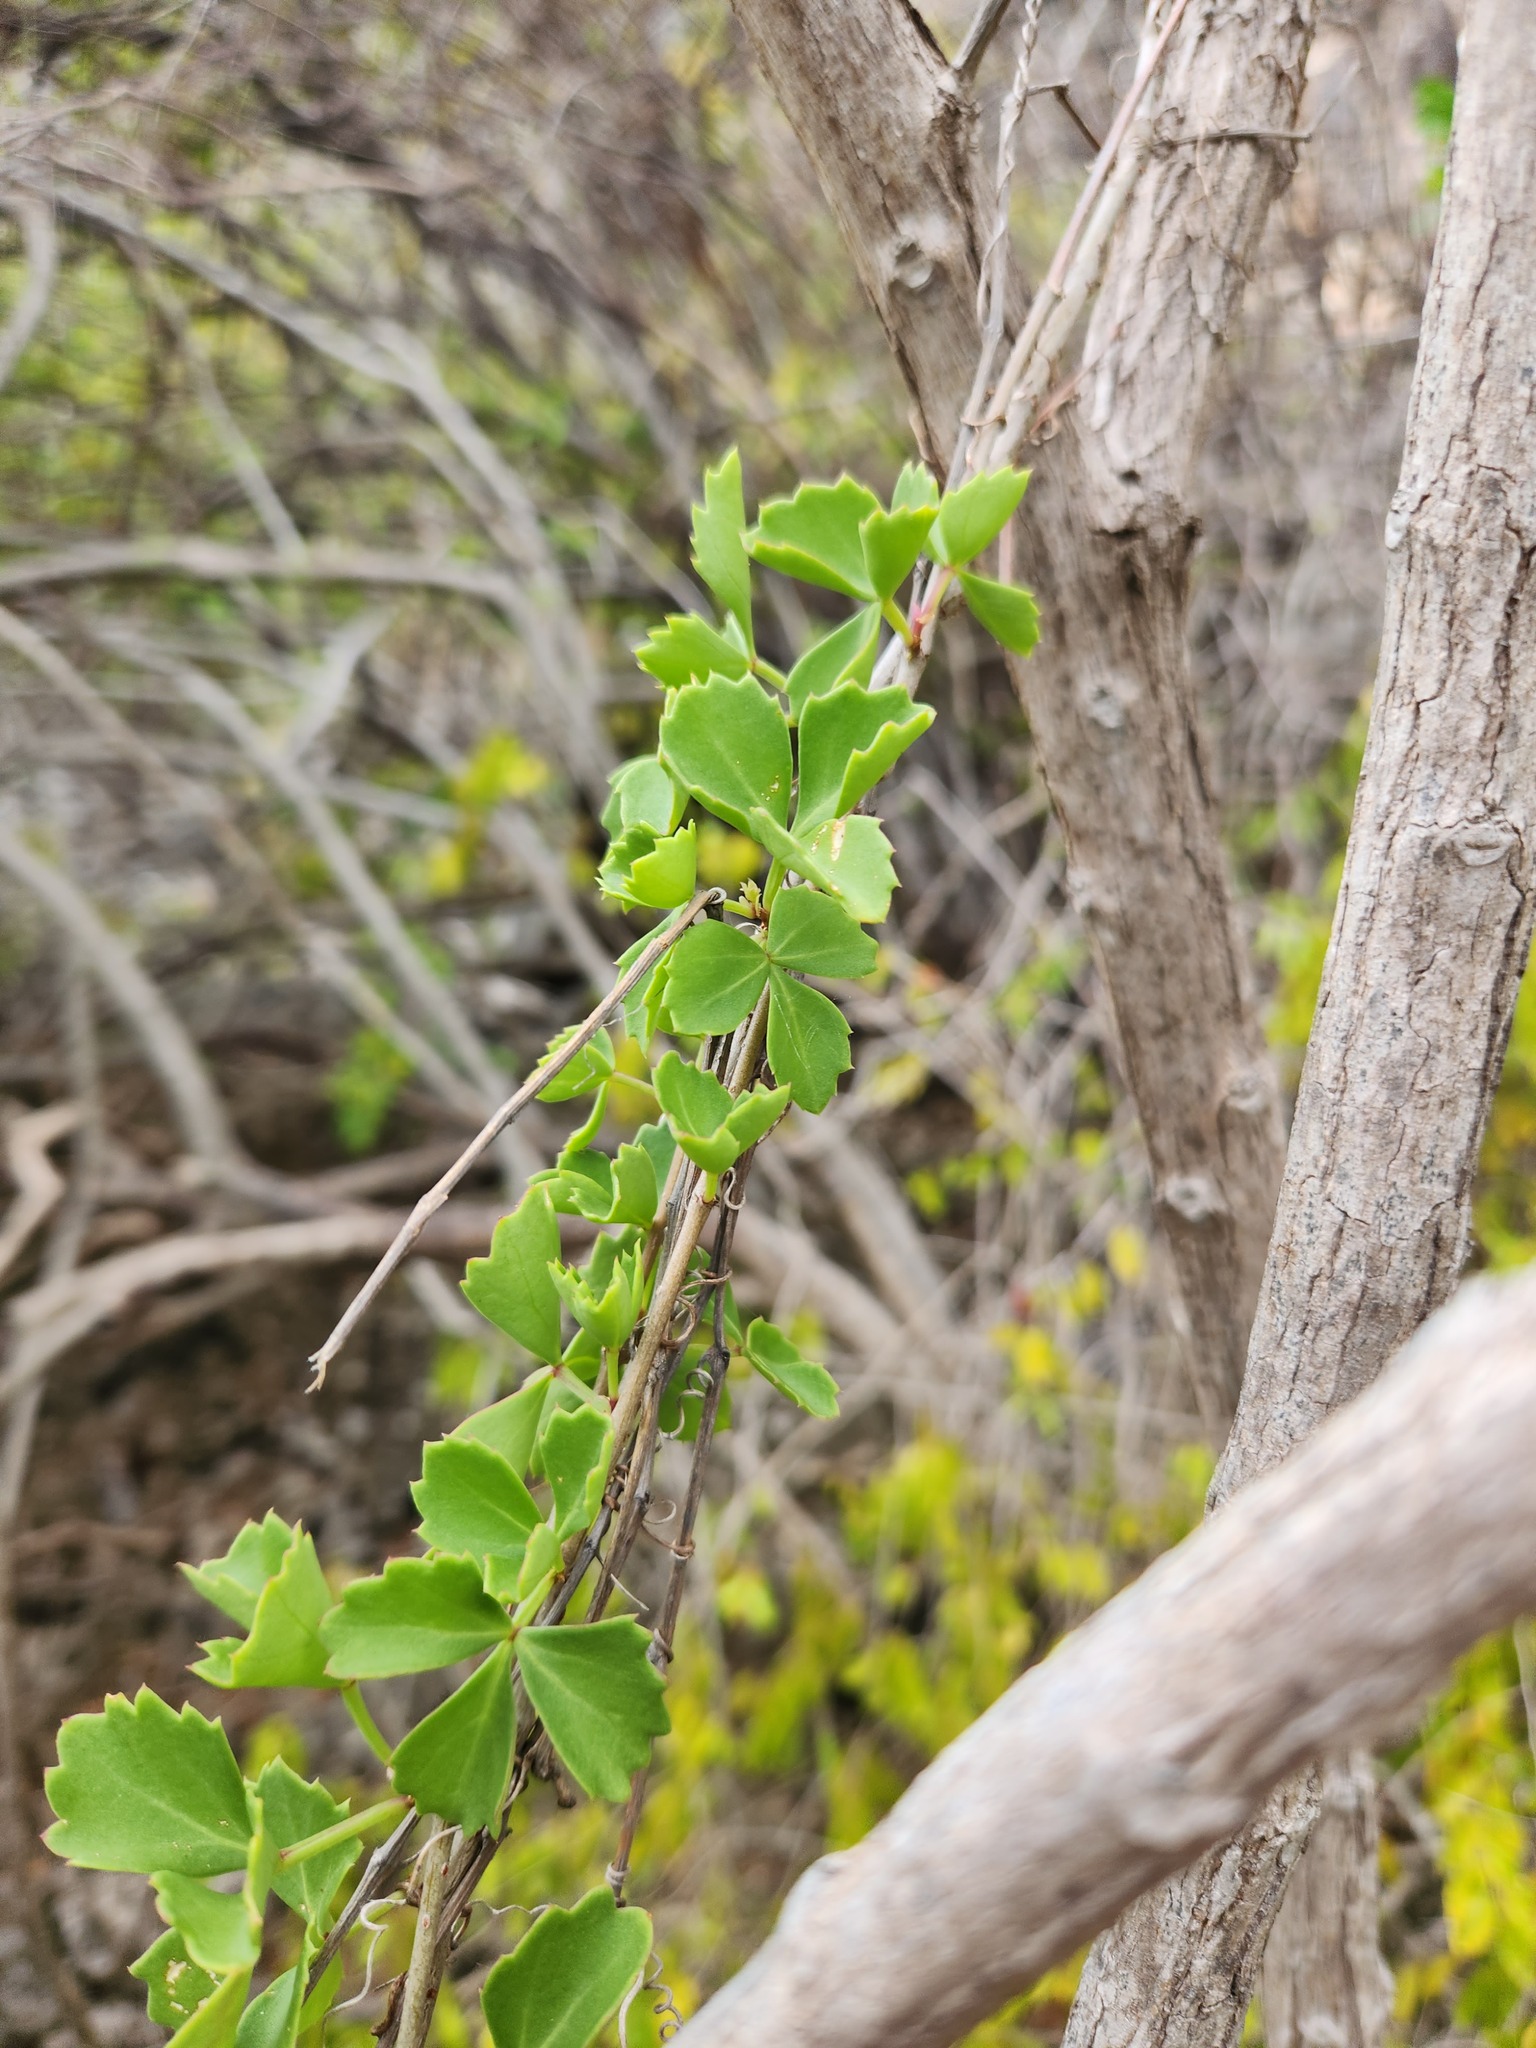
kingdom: Plantae
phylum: Tracheophyta
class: Magnoliopsida
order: Vitales
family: Vitaceae
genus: Cissus
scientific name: Cissus trifoliata
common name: Vine-sorrel
